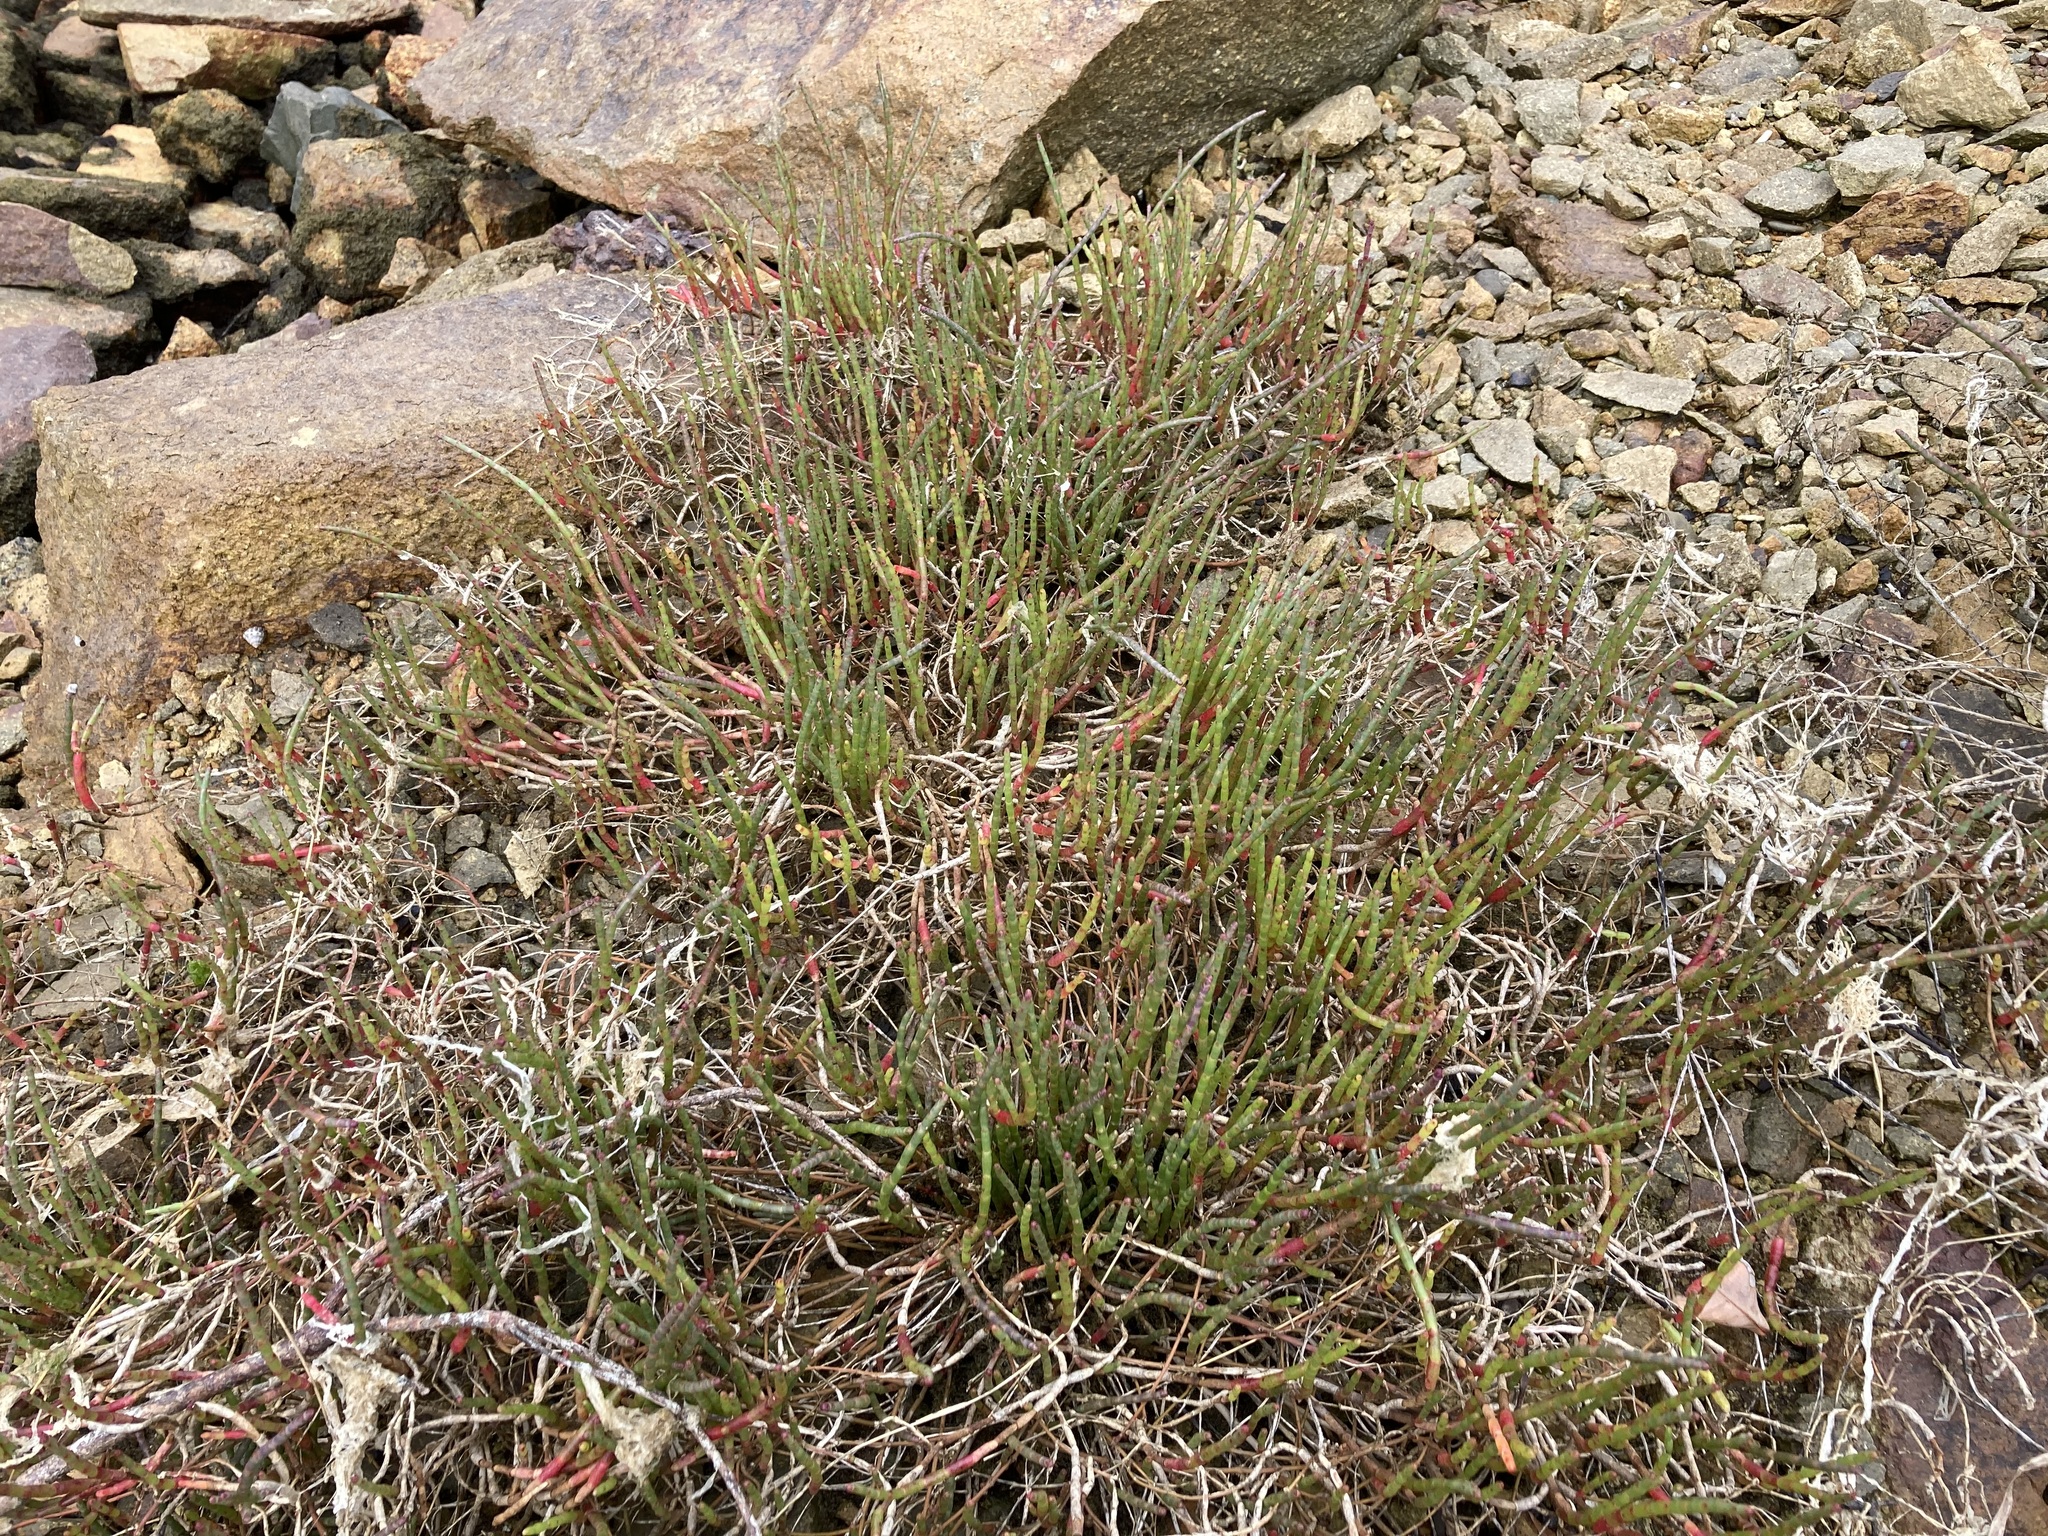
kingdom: Plantae
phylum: Tracheophyta
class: Magnoliopsida
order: Caryophyllales
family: Amaranthaceae
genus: Salicornia
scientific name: Salicornia quinqueflora
